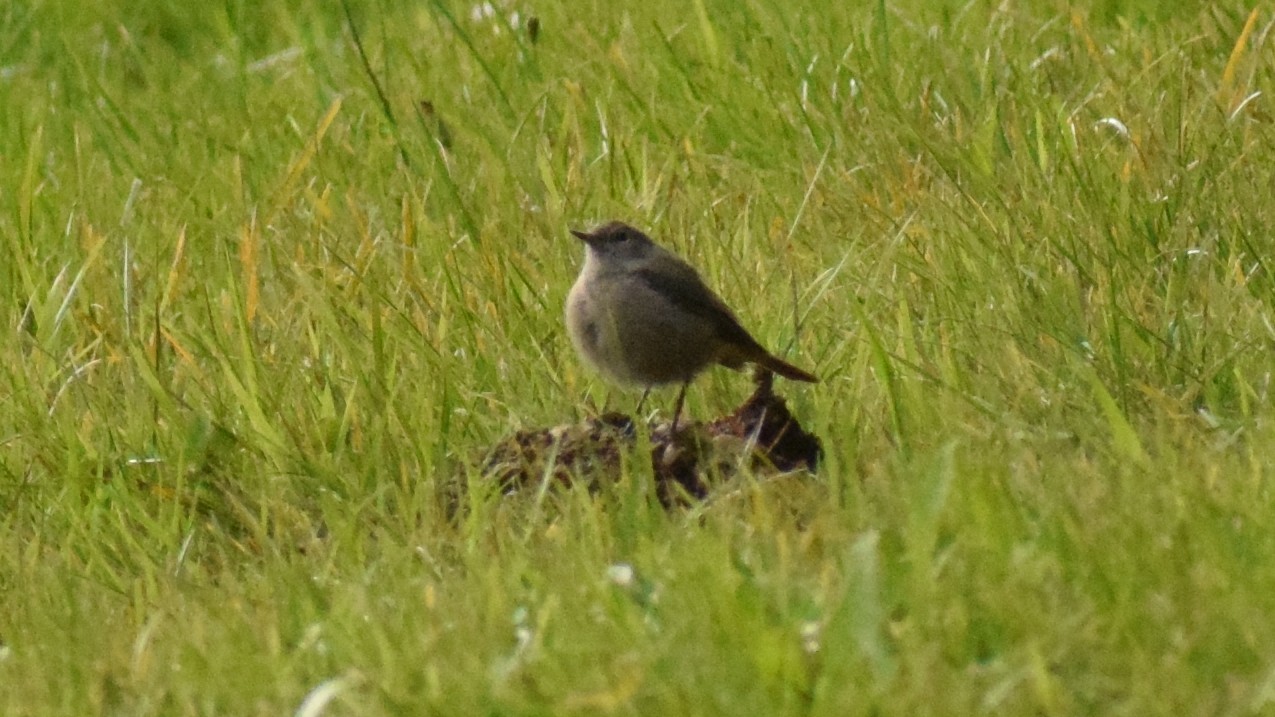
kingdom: Animalia
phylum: Chordata
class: Aves
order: Passeriformes
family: Muscicapidae
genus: Phoenicurus
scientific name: Phoenicurus ochruros
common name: Black redstart
